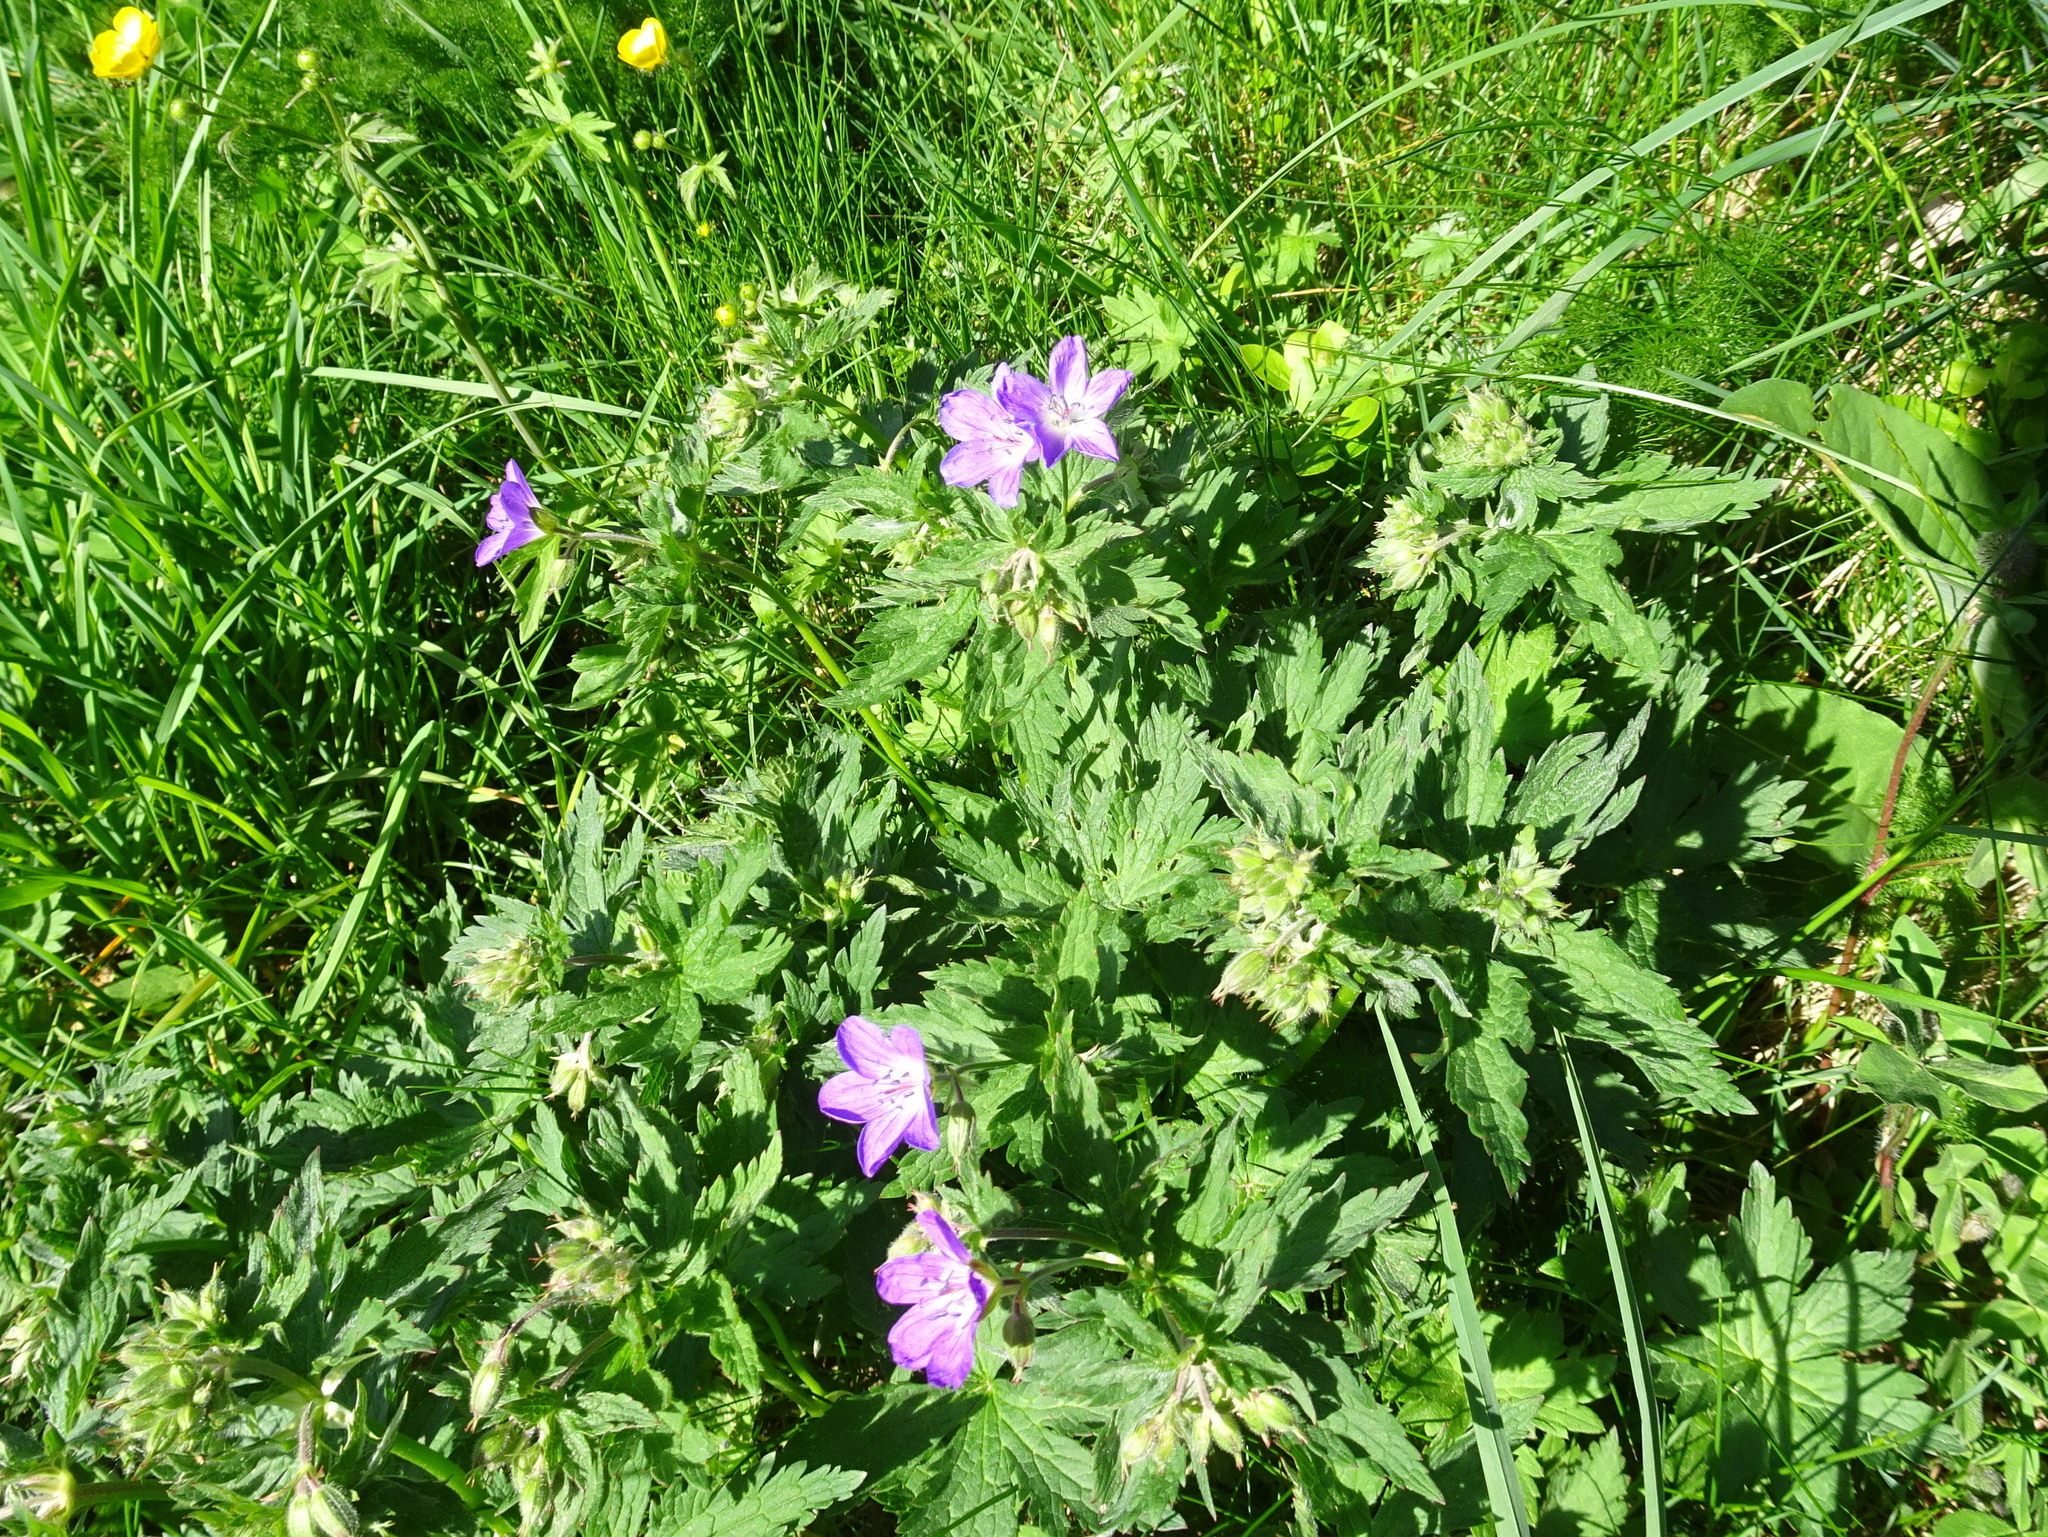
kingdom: Plantae
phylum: Tracheophyta
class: Magnoliopsida
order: Geraniales
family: Geraniaceae
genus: Geranium
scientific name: Geranium sylvaticum
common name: Wood crane's-bill
